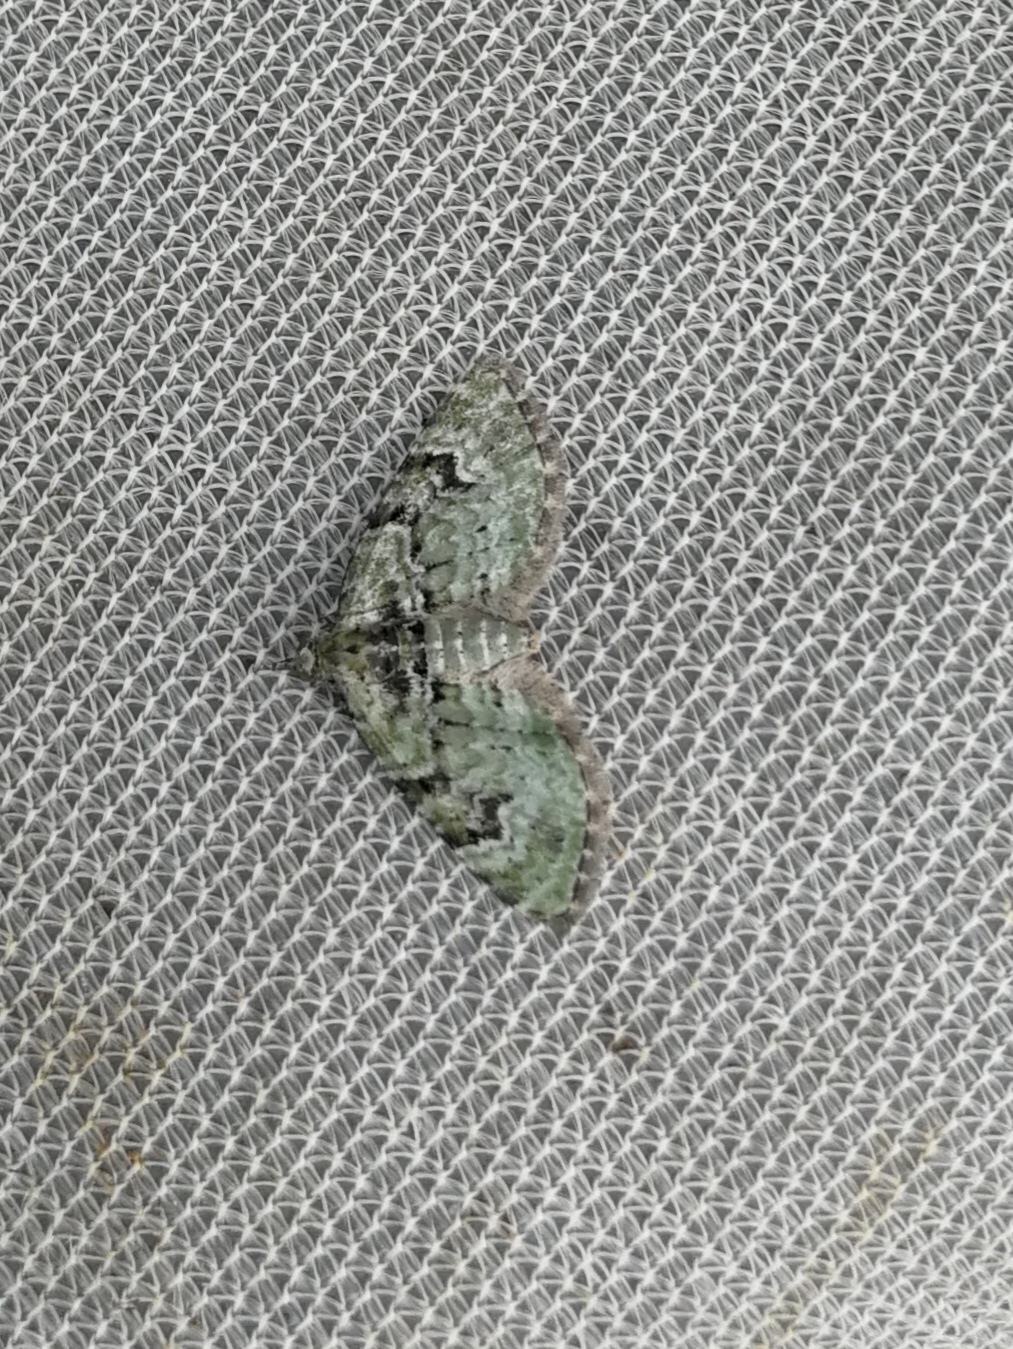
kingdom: Animalia
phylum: Arthropoda
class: Insecta
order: Lepidoptera
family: Geometridae
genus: Chloroclystis
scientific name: Chloroclystis v-ata
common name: V-pug
